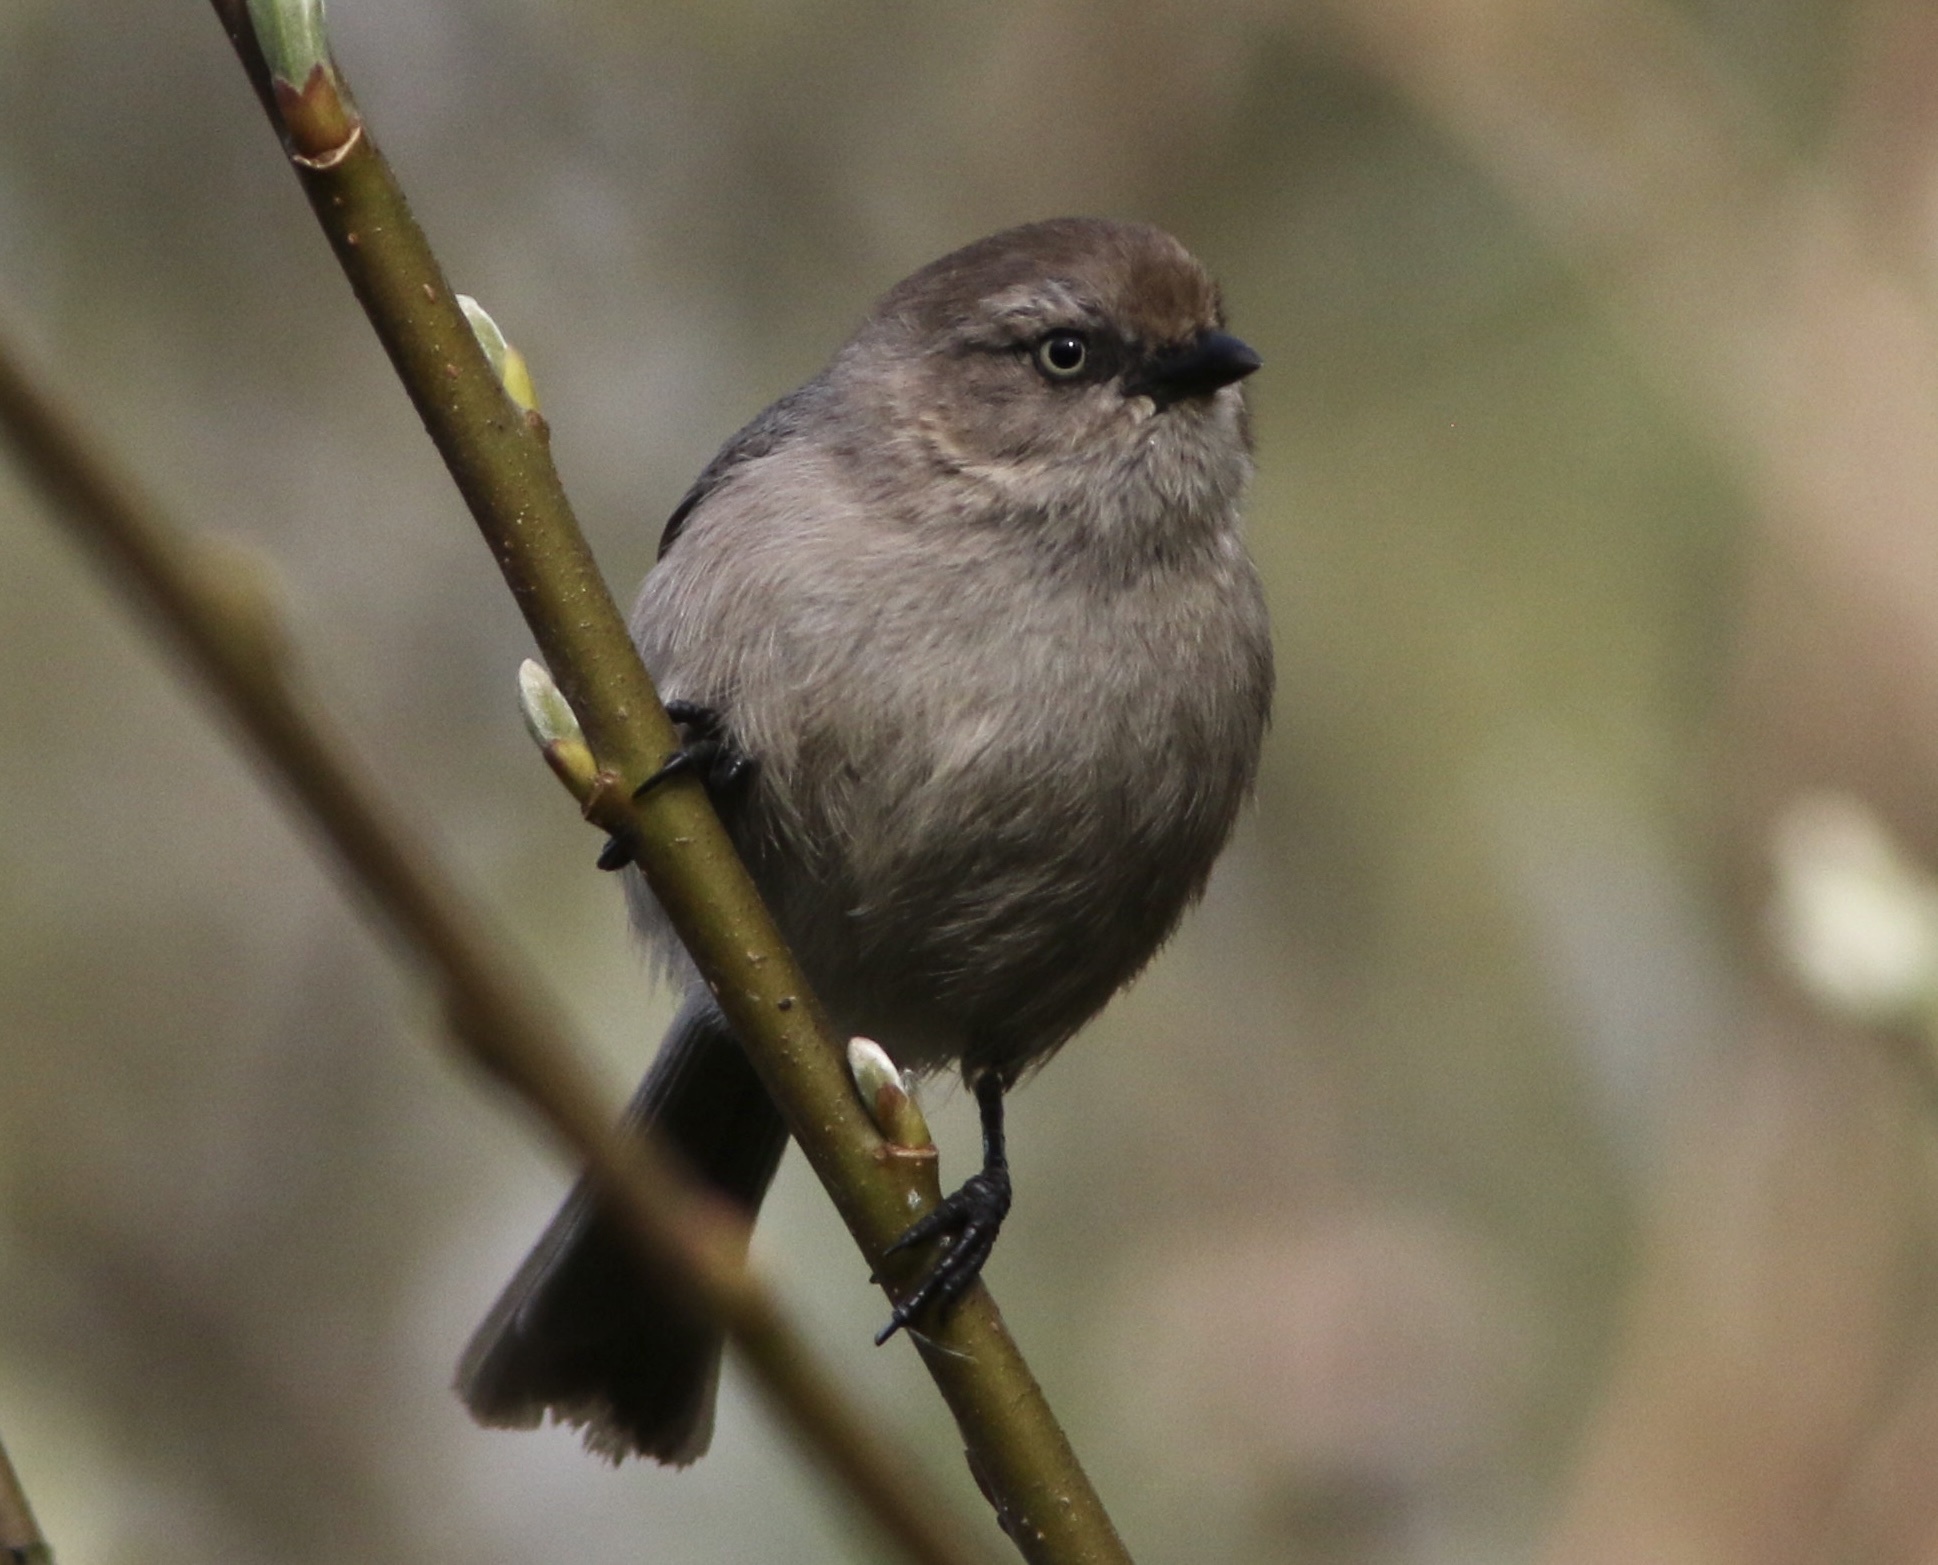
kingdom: Animalia
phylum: Chordata
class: Aves
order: Passeriformes
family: Aegithalidae
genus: Psaltriparus
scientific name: Psaltriparus minimus
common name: American bushtit
